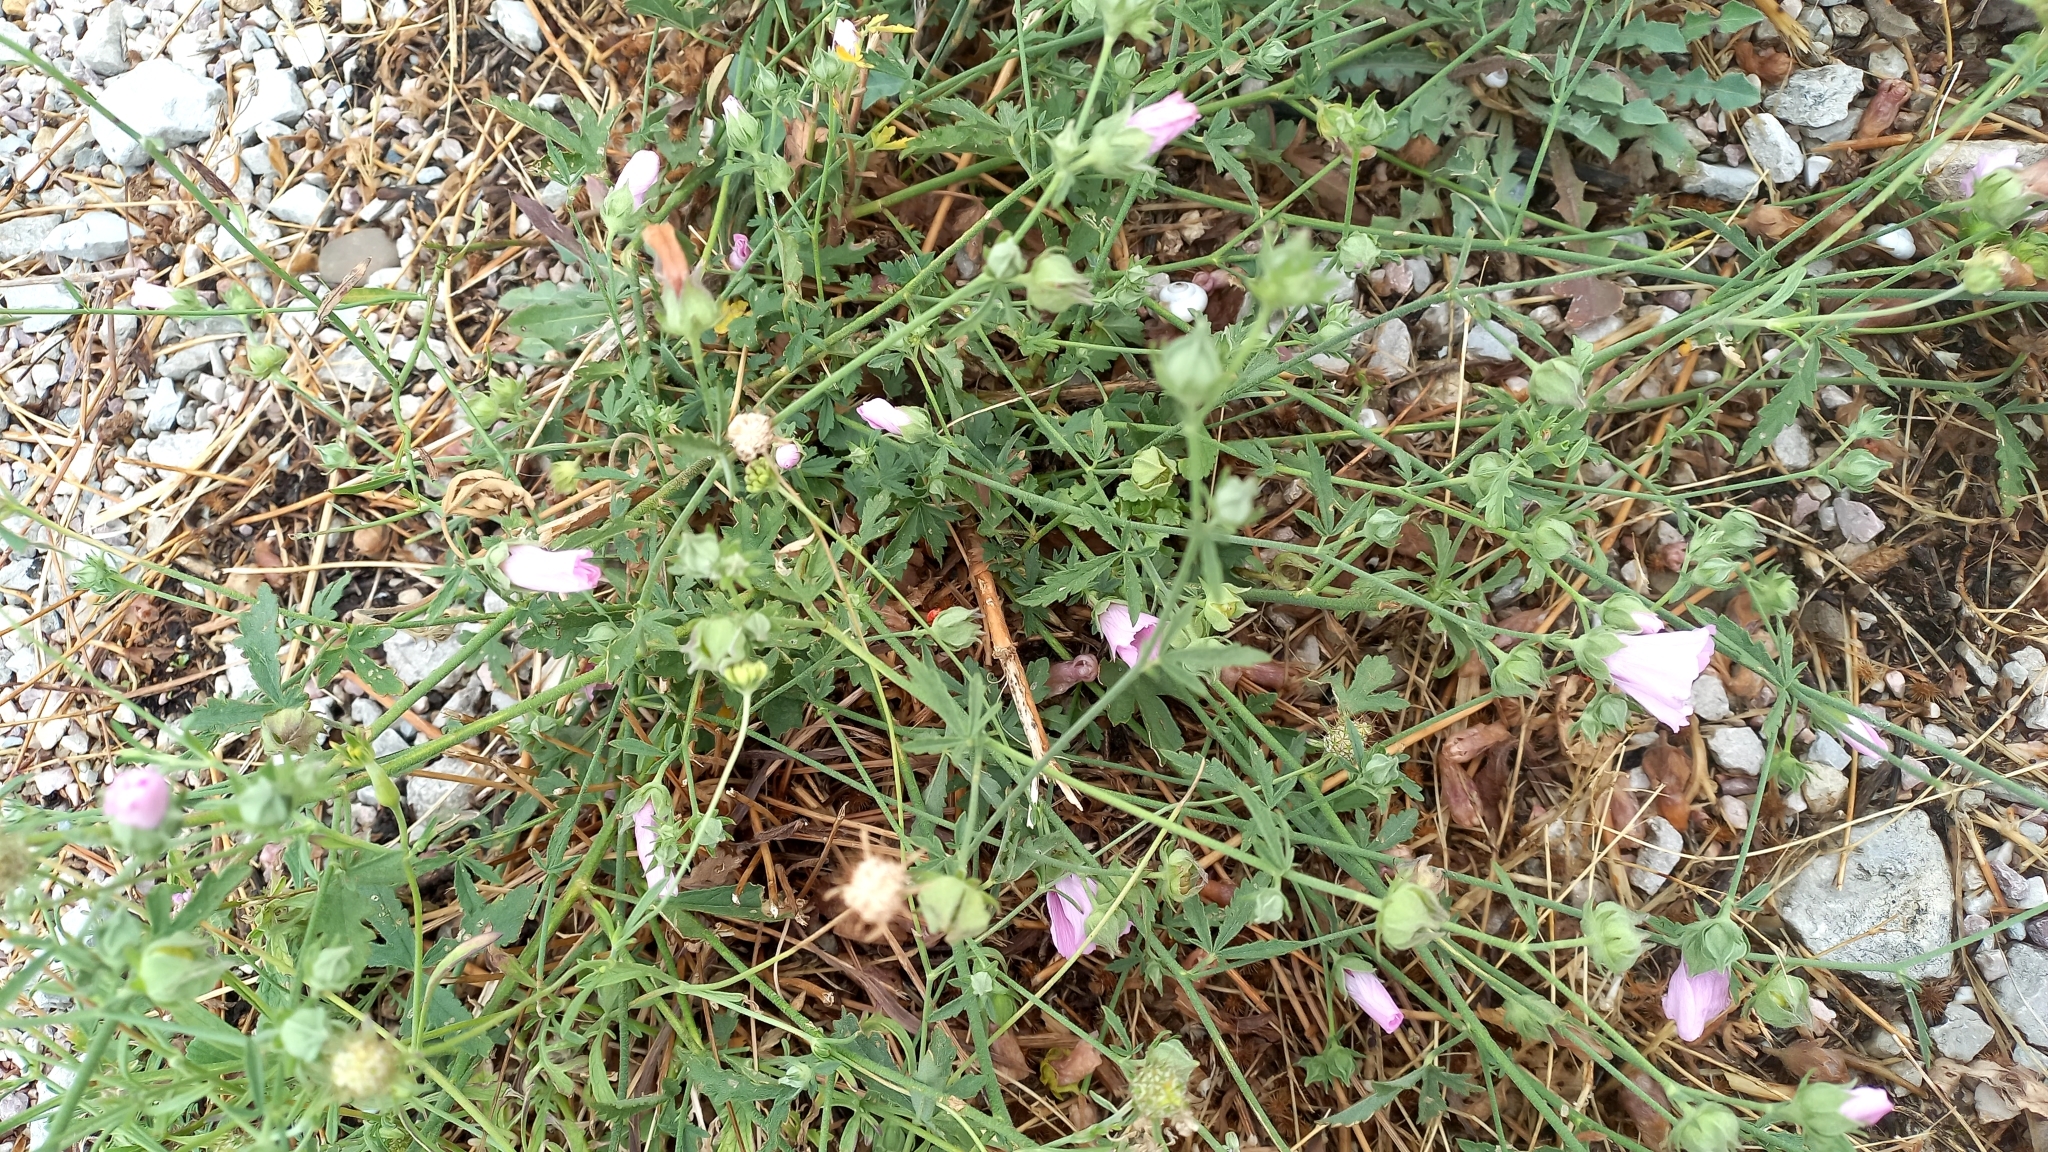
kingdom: Plantae
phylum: Tracheophyta
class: Magnoliopsida
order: Malvales
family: Malvaceae
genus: Althaea
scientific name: Althaea cannabina
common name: Palm-leaf marshmallow
